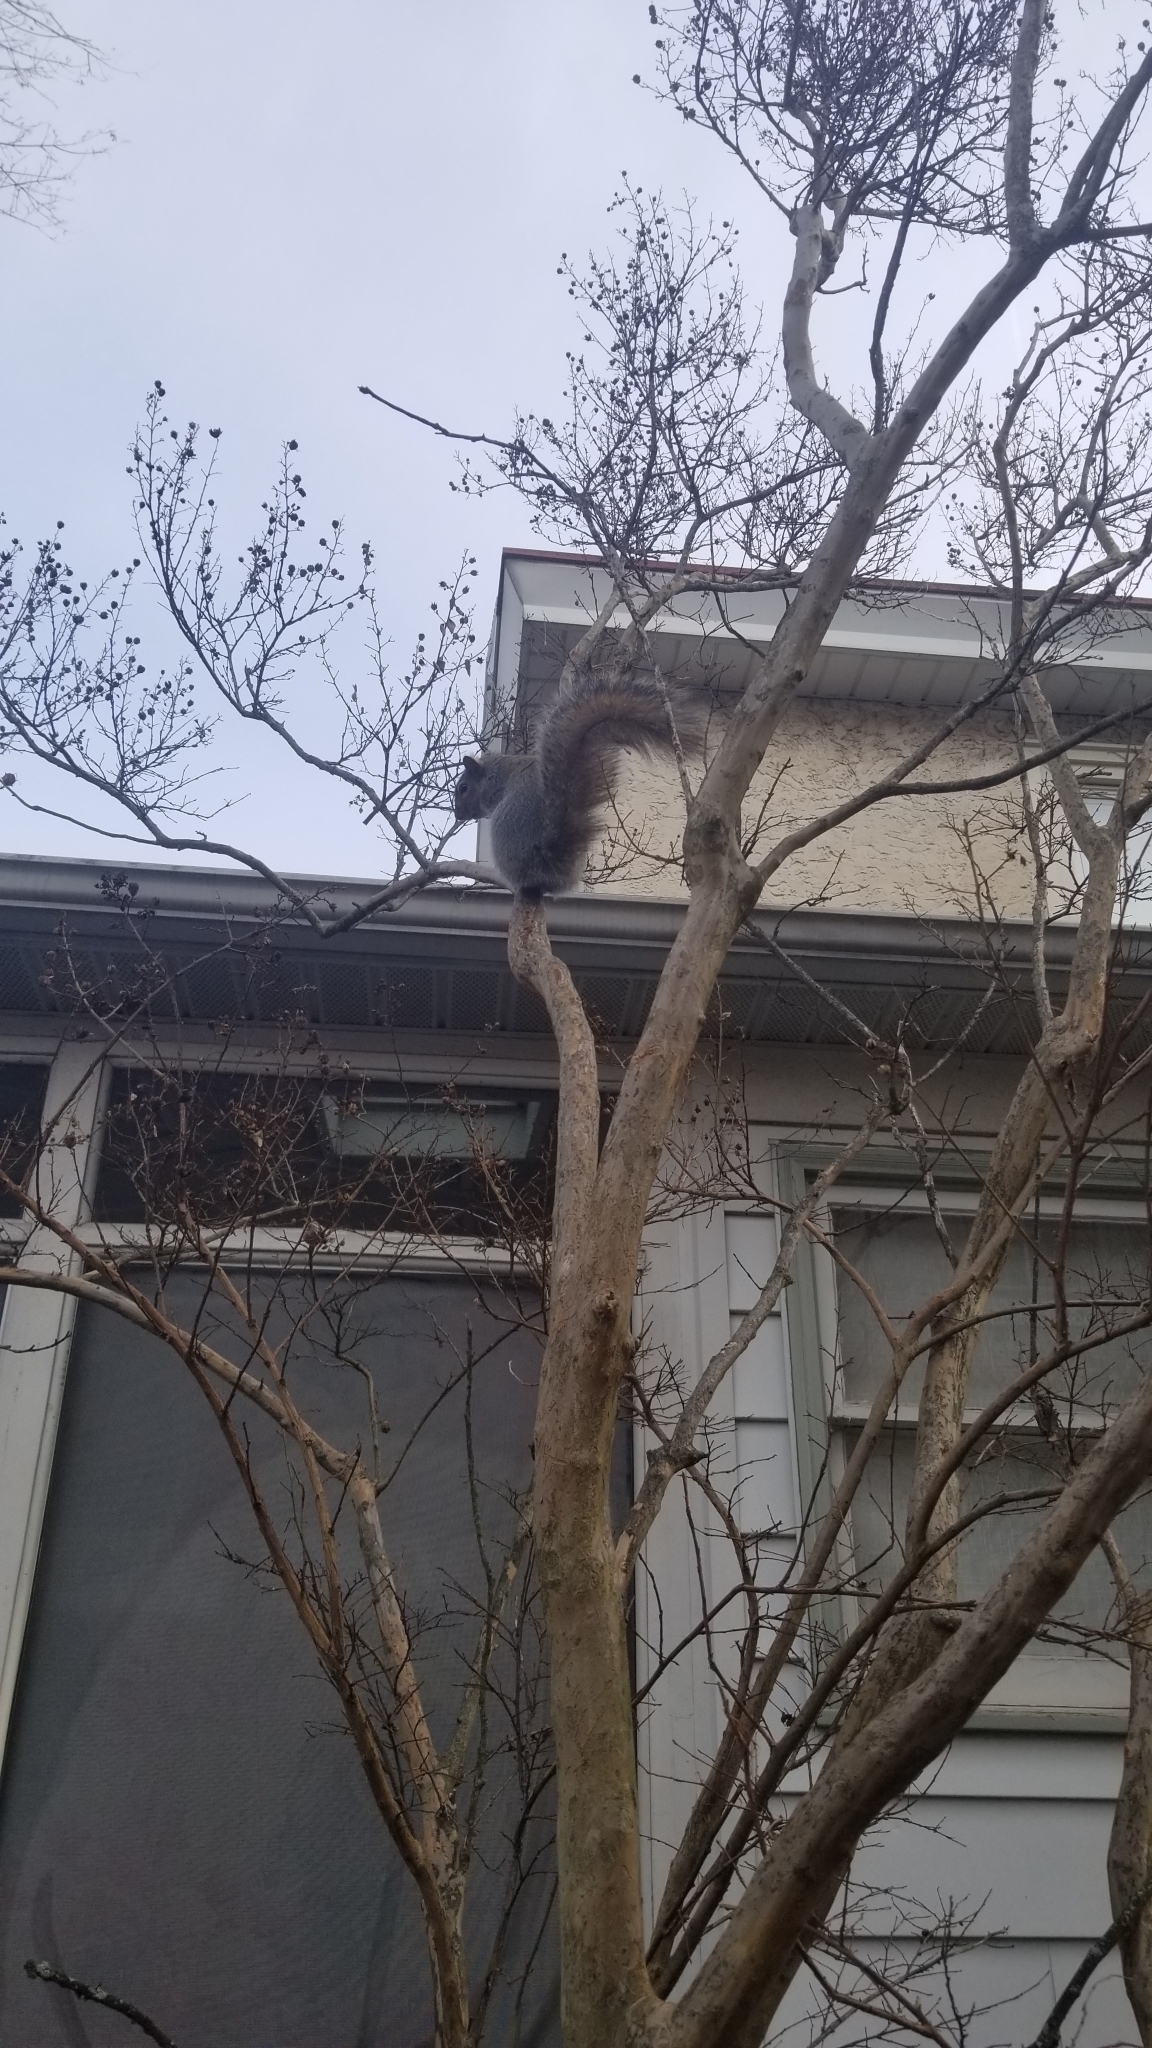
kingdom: Animalia
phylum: Chordata
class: Mammalia
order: Rodentia
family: Sciuridae
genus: Sciurus
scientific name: Sciurus carolinensis
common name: Eastern gray squirrel
